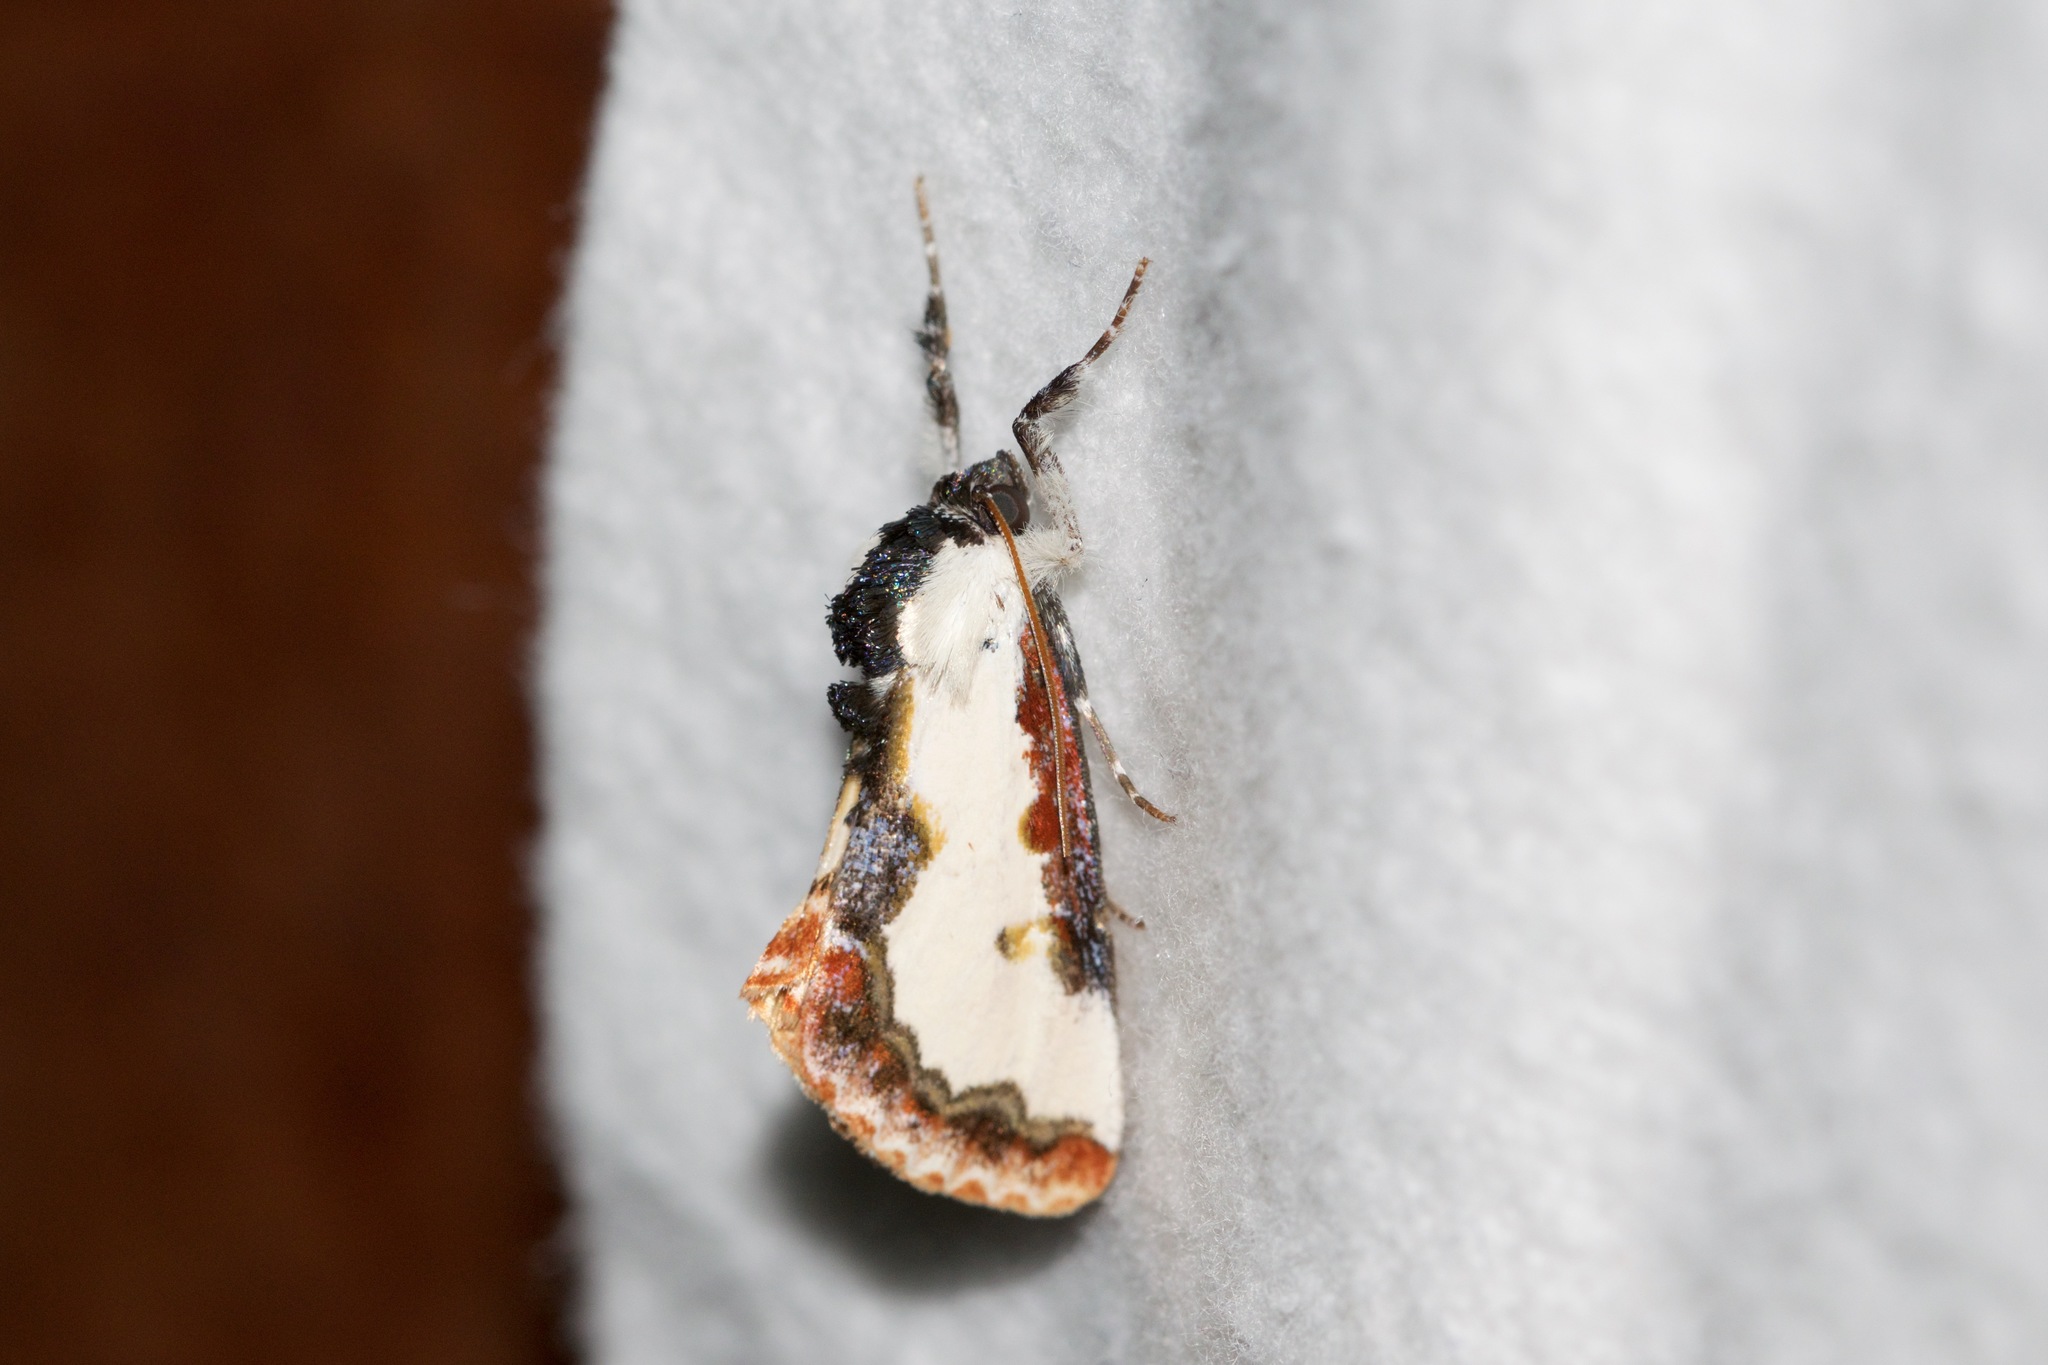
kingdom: Animalia
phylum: Arthropoda
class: Insecta
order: Lepidoptera
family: Noctuidae
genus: Eudryas
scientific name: Eudryas unio
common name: Pearly wood-nymph
